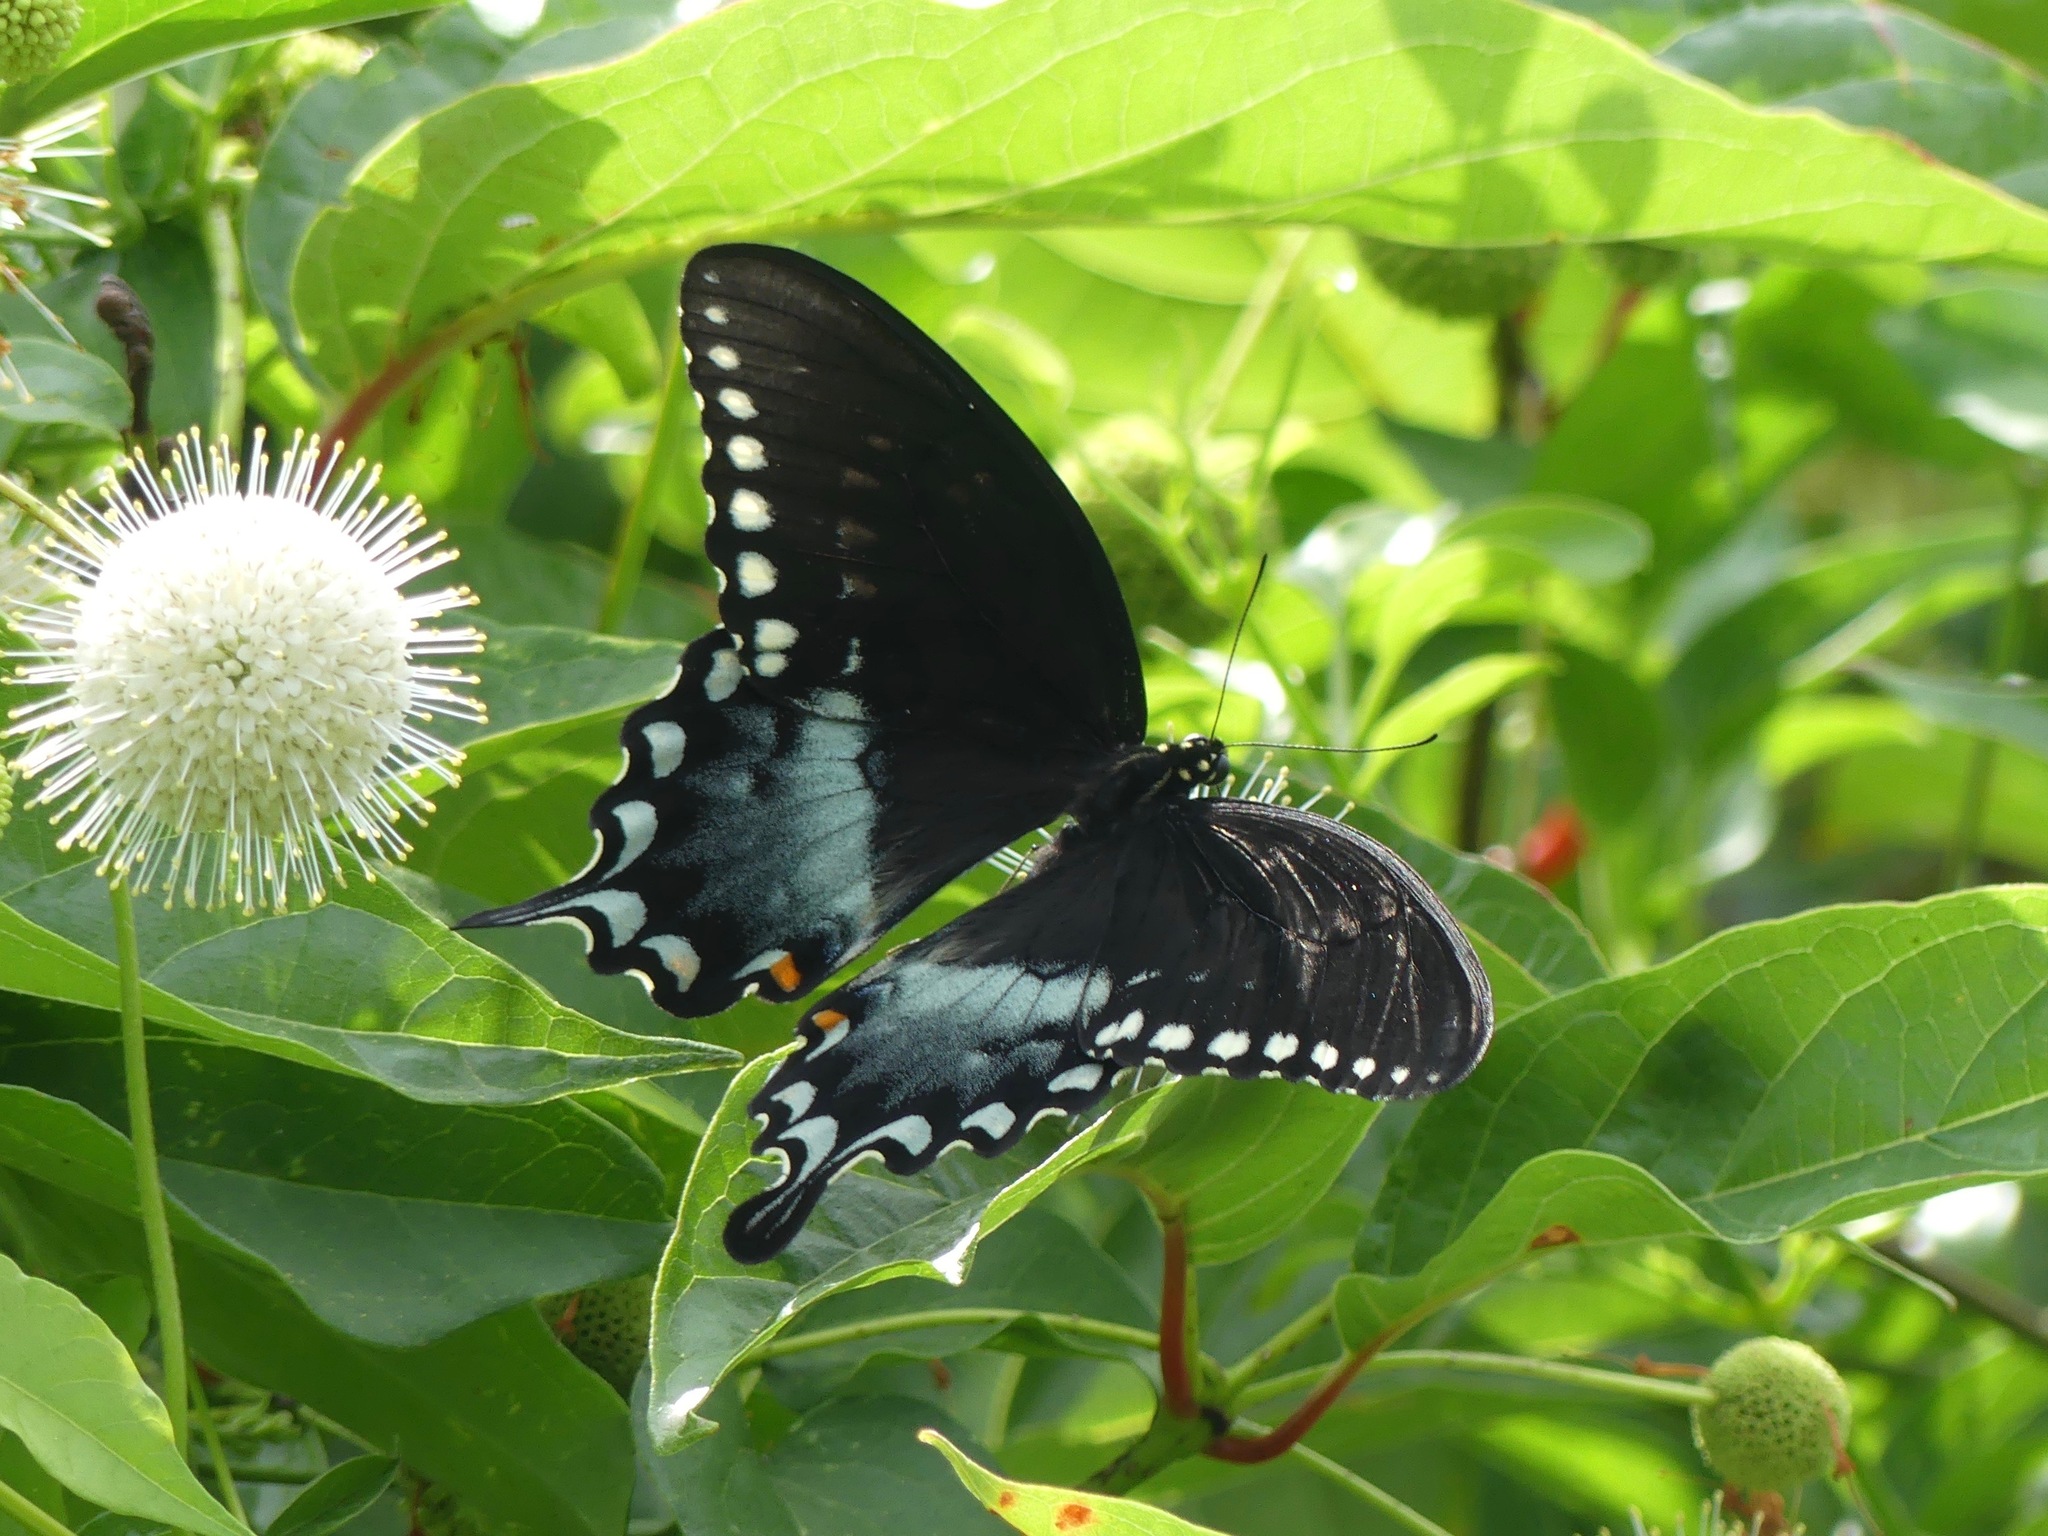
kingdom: Animalia
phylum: Arthropoda
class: Insecta
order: Lepidoptera
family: Papilionidae
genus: Papilio
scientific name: Papilio troilus
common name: Spicebush swallowtail
